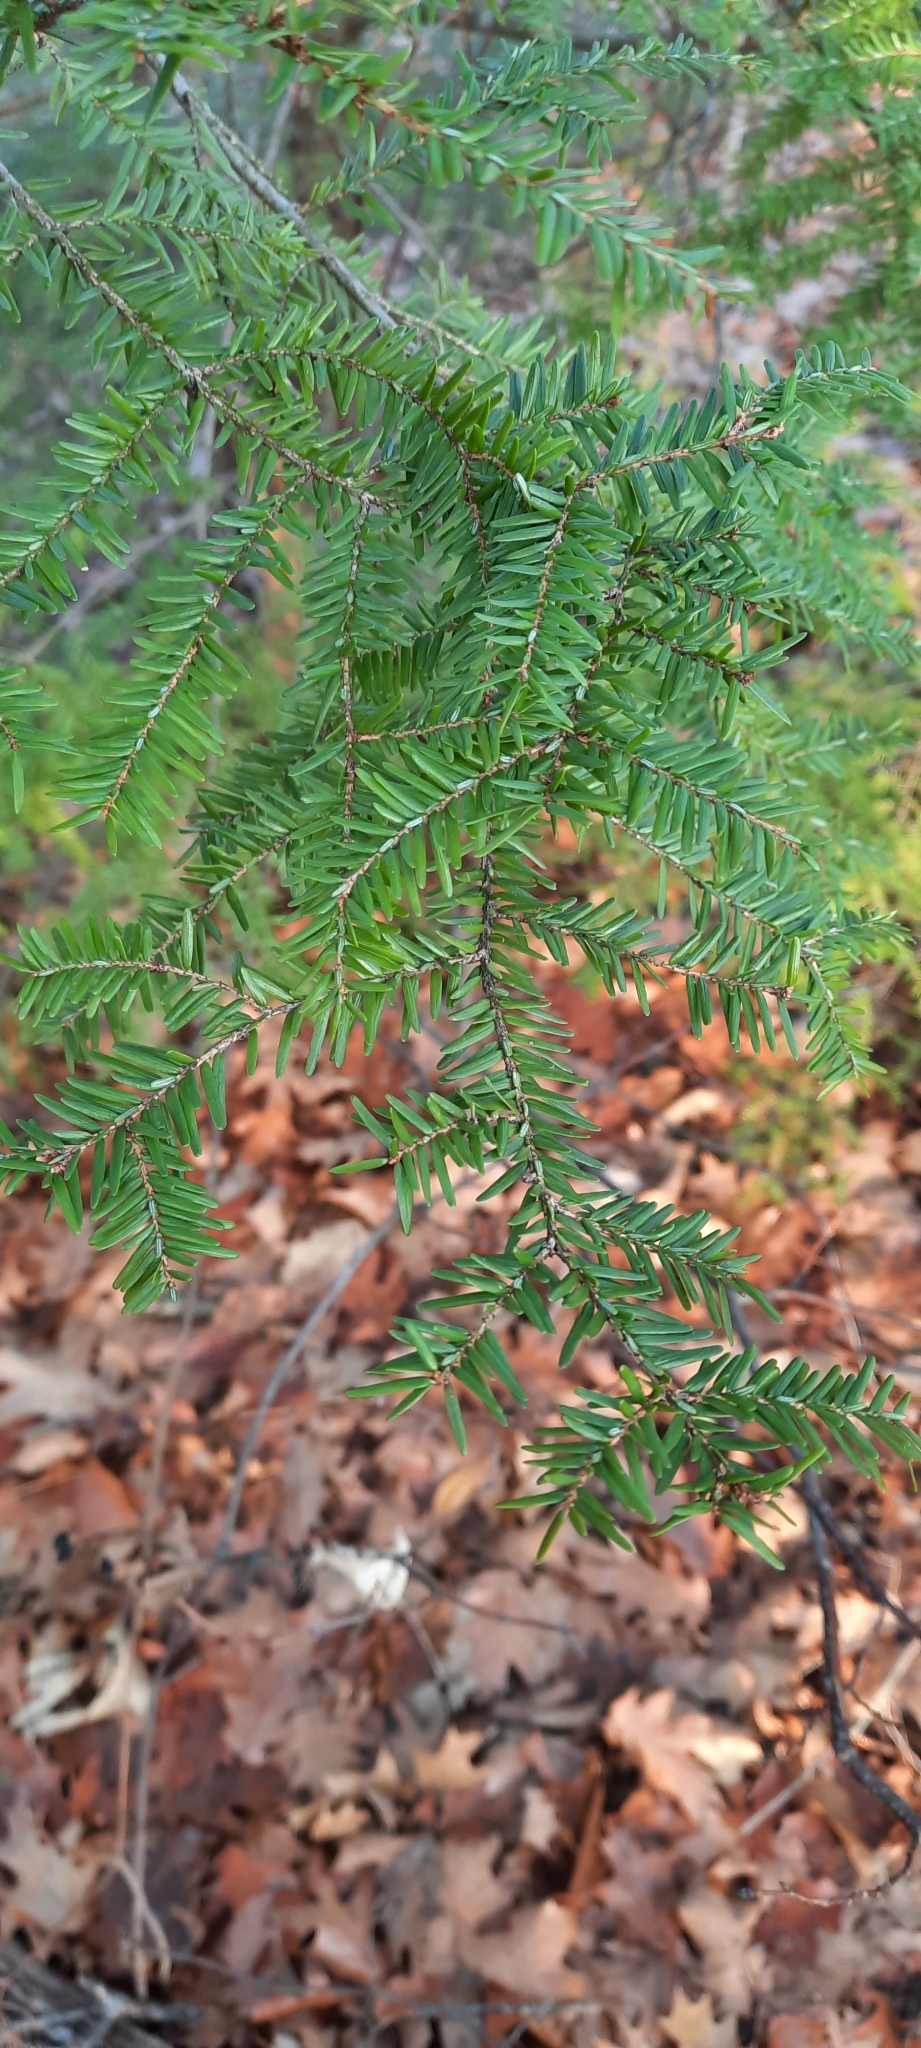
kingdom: Plantae
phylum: Tracheophyta
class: Pinopsida
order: Pinales
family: Pinaceae
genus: Tsuga
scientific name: Tsuga canadensis
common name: Eastern hemlock
